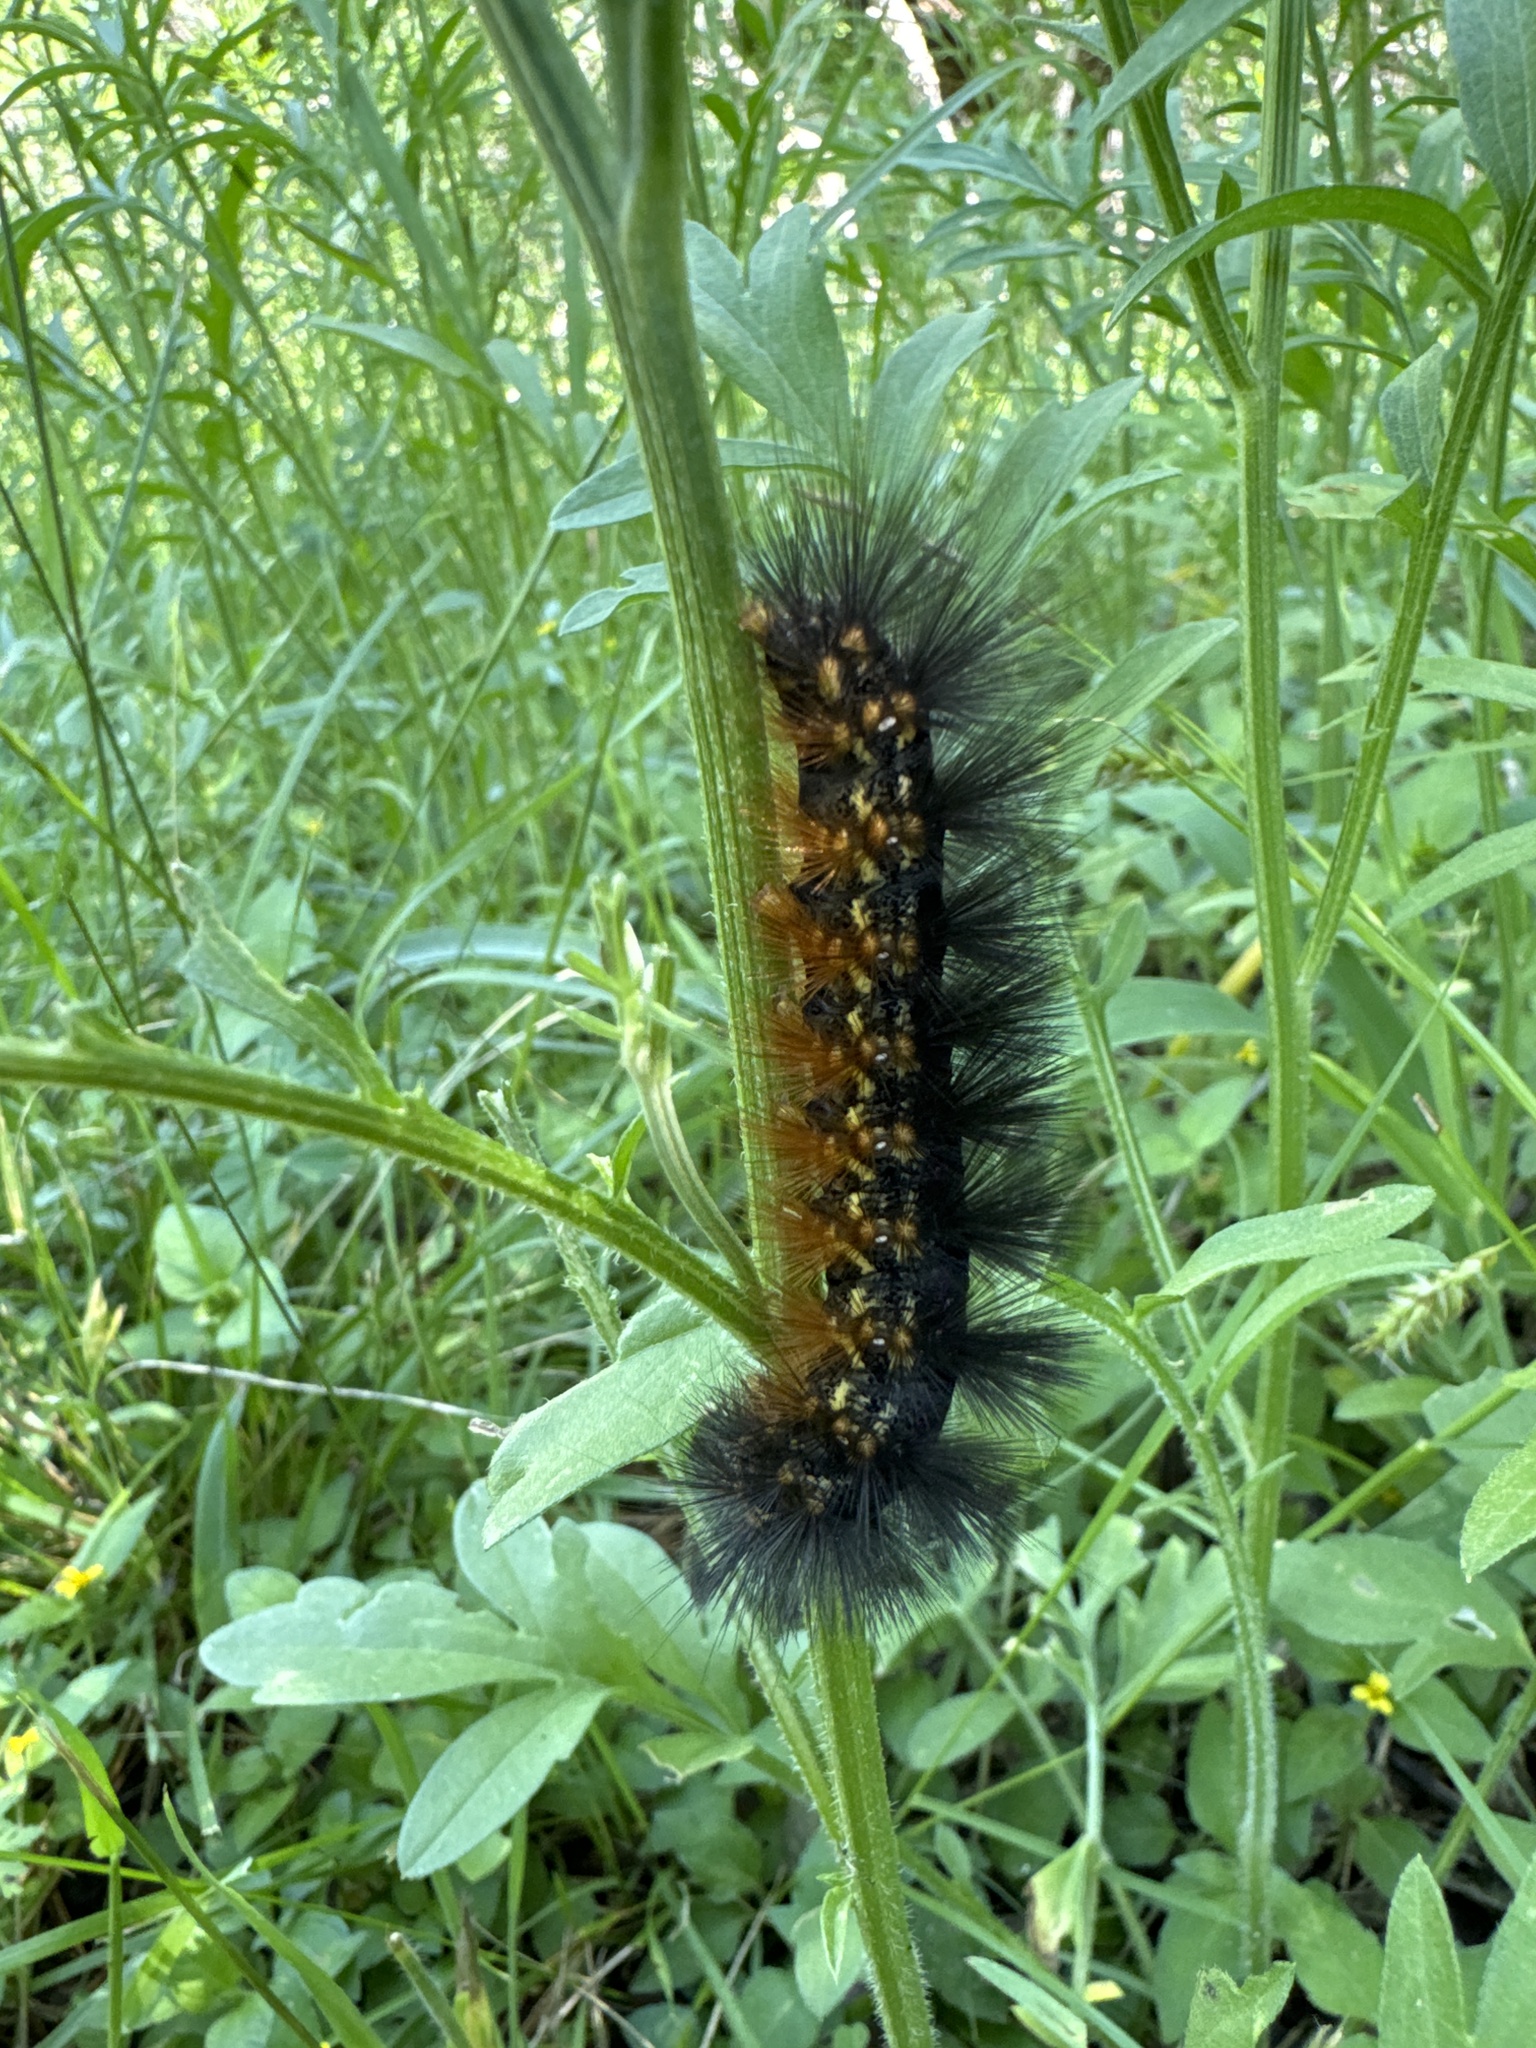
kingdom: Animalia
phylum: Arthropoda
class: Insecta
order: Lepidoptera
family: Erebidae
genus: Estigmene
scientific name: Estigmene acrea
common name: Salt marsh moth
